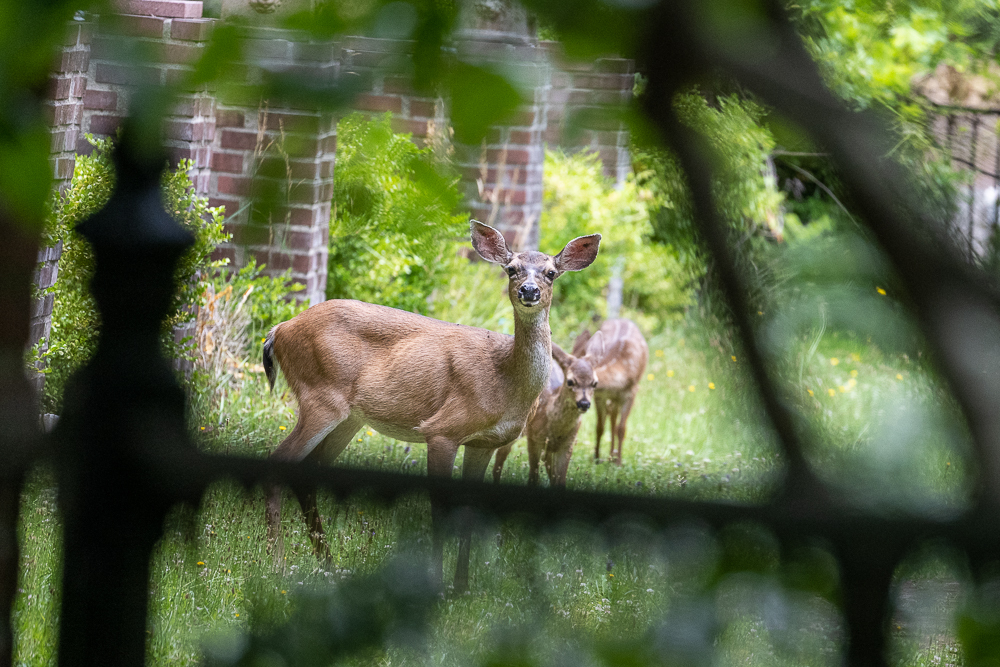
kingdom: Animalia
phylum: Chordata
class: Mammalia
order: Artiodactyla
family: Cervidae
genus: Odocoileus
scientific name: Odocoileus hemionus
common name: Mule deer
